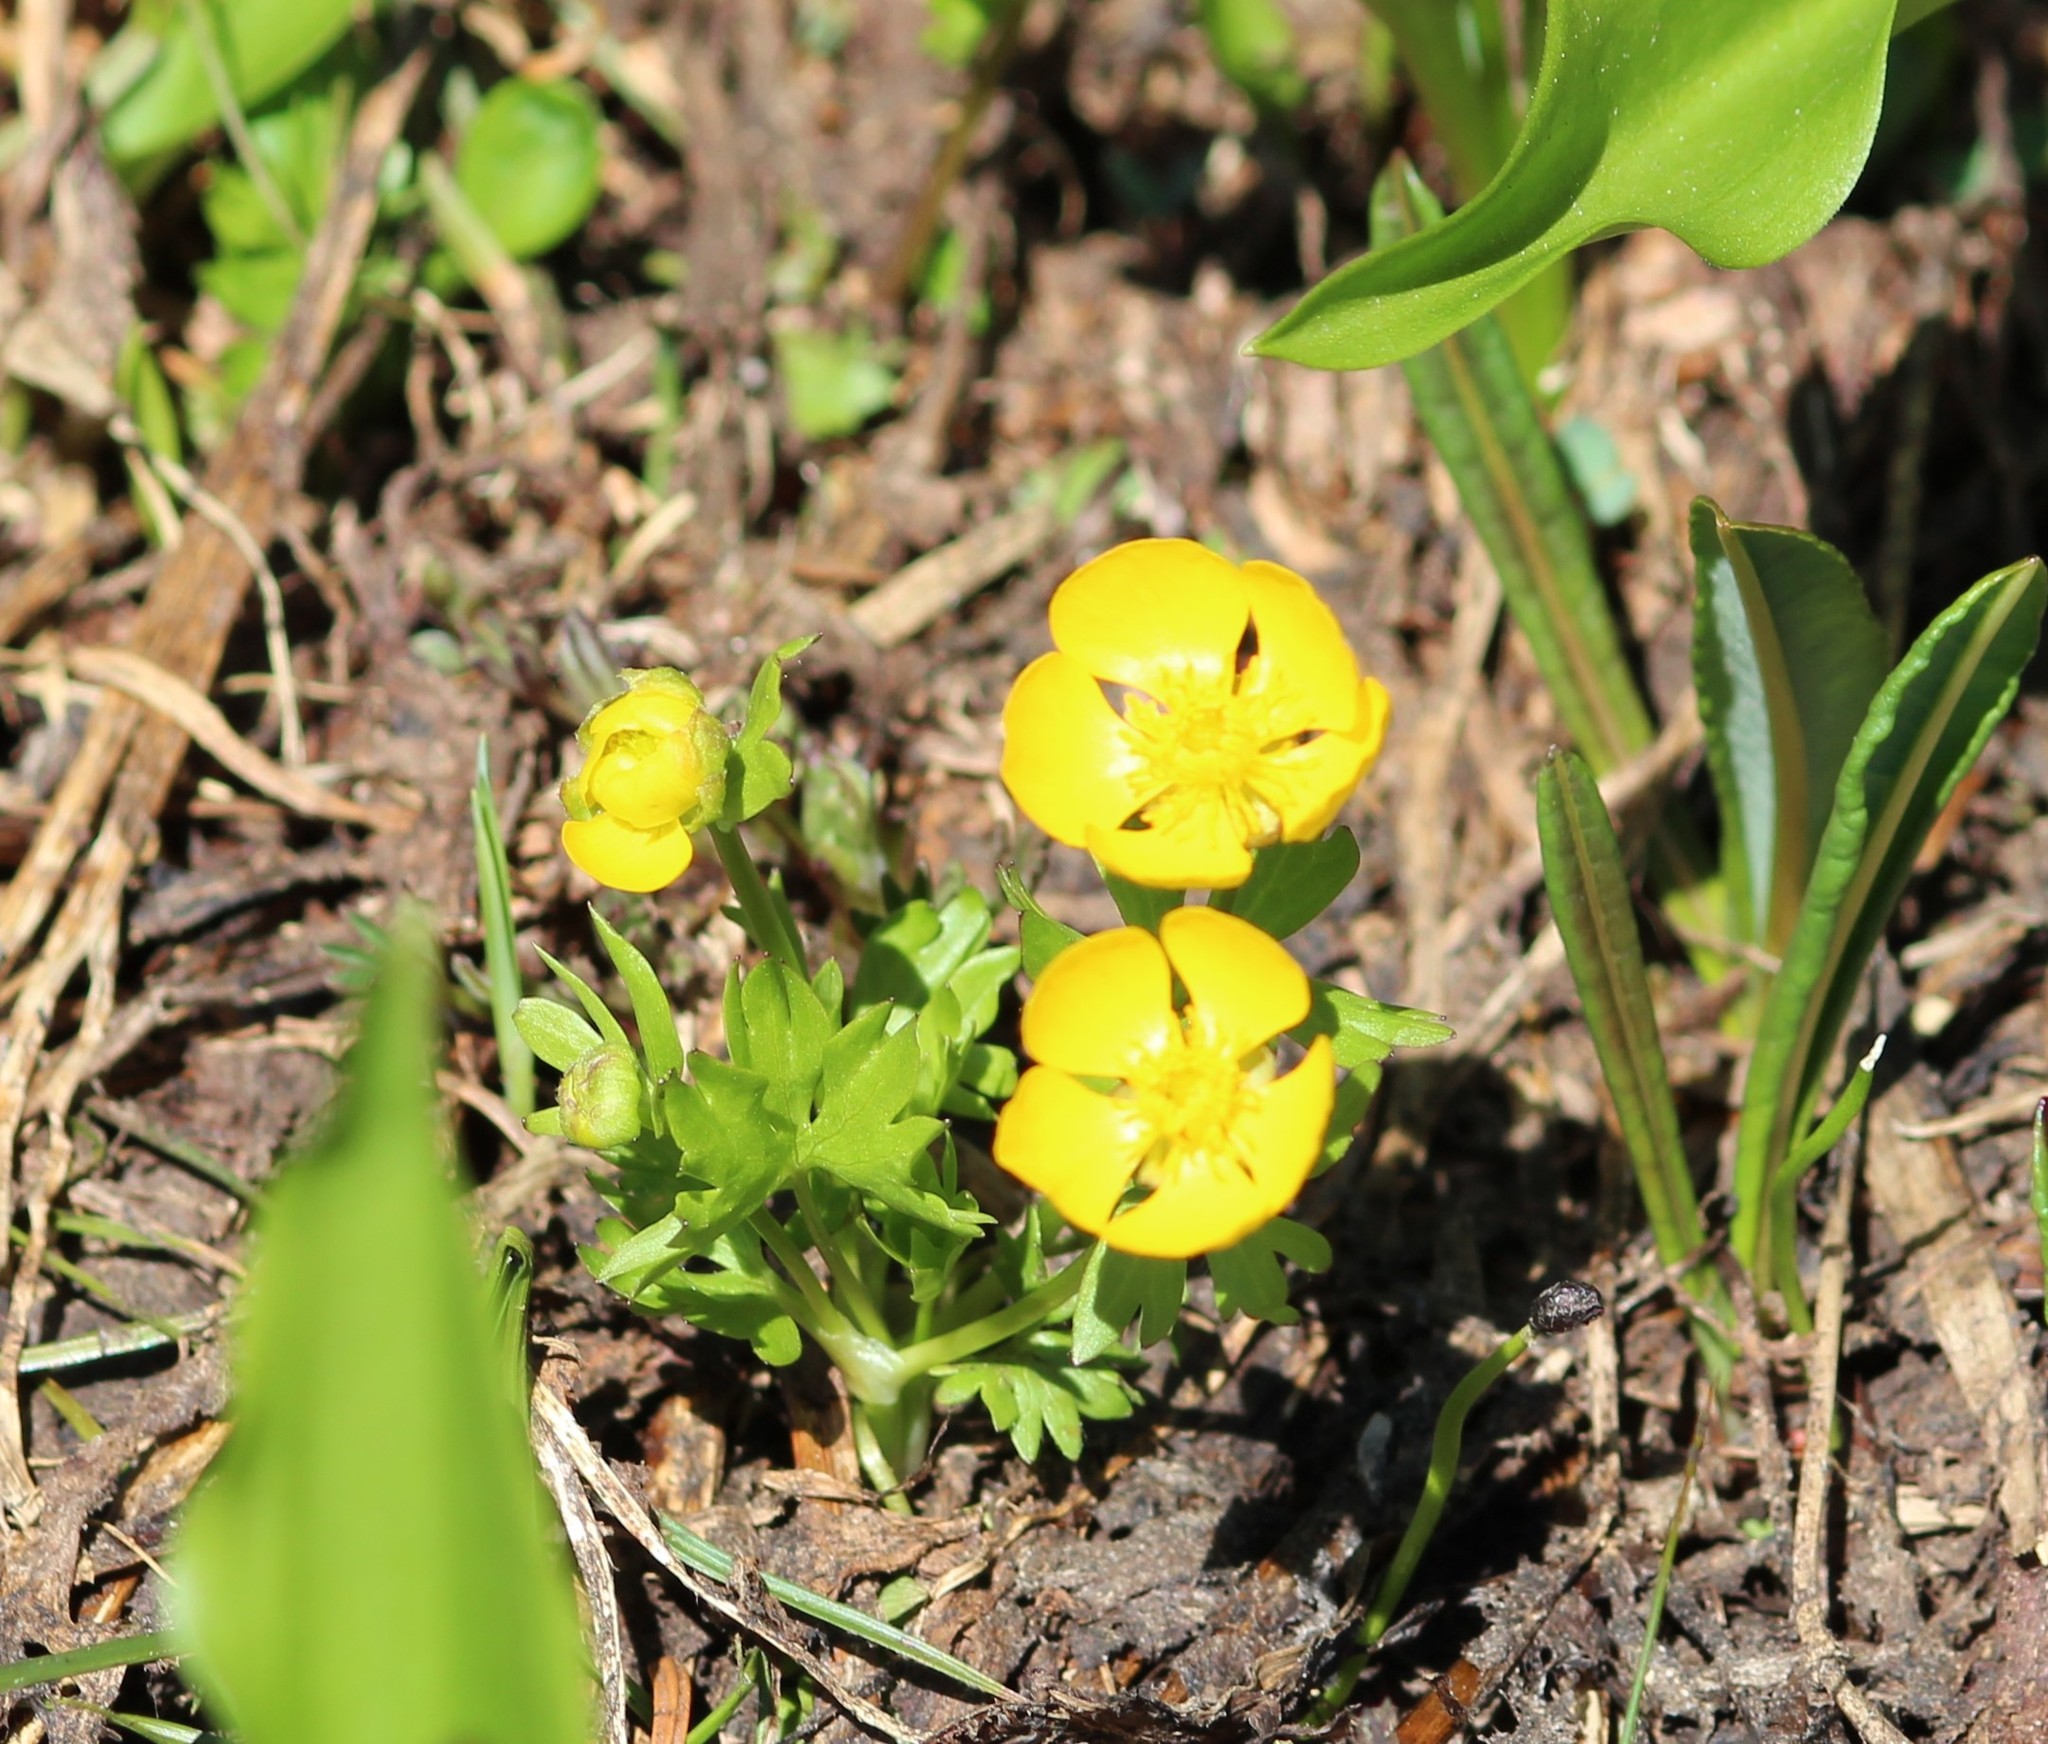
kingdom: Plantae
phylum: Tracheophyta
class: Magnoliopsida
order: Ranunculales
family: Ranunculaceae
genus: Ranunculus
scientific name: Ranunculus eschscholtzii
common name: Eschscholtz's buttercup
